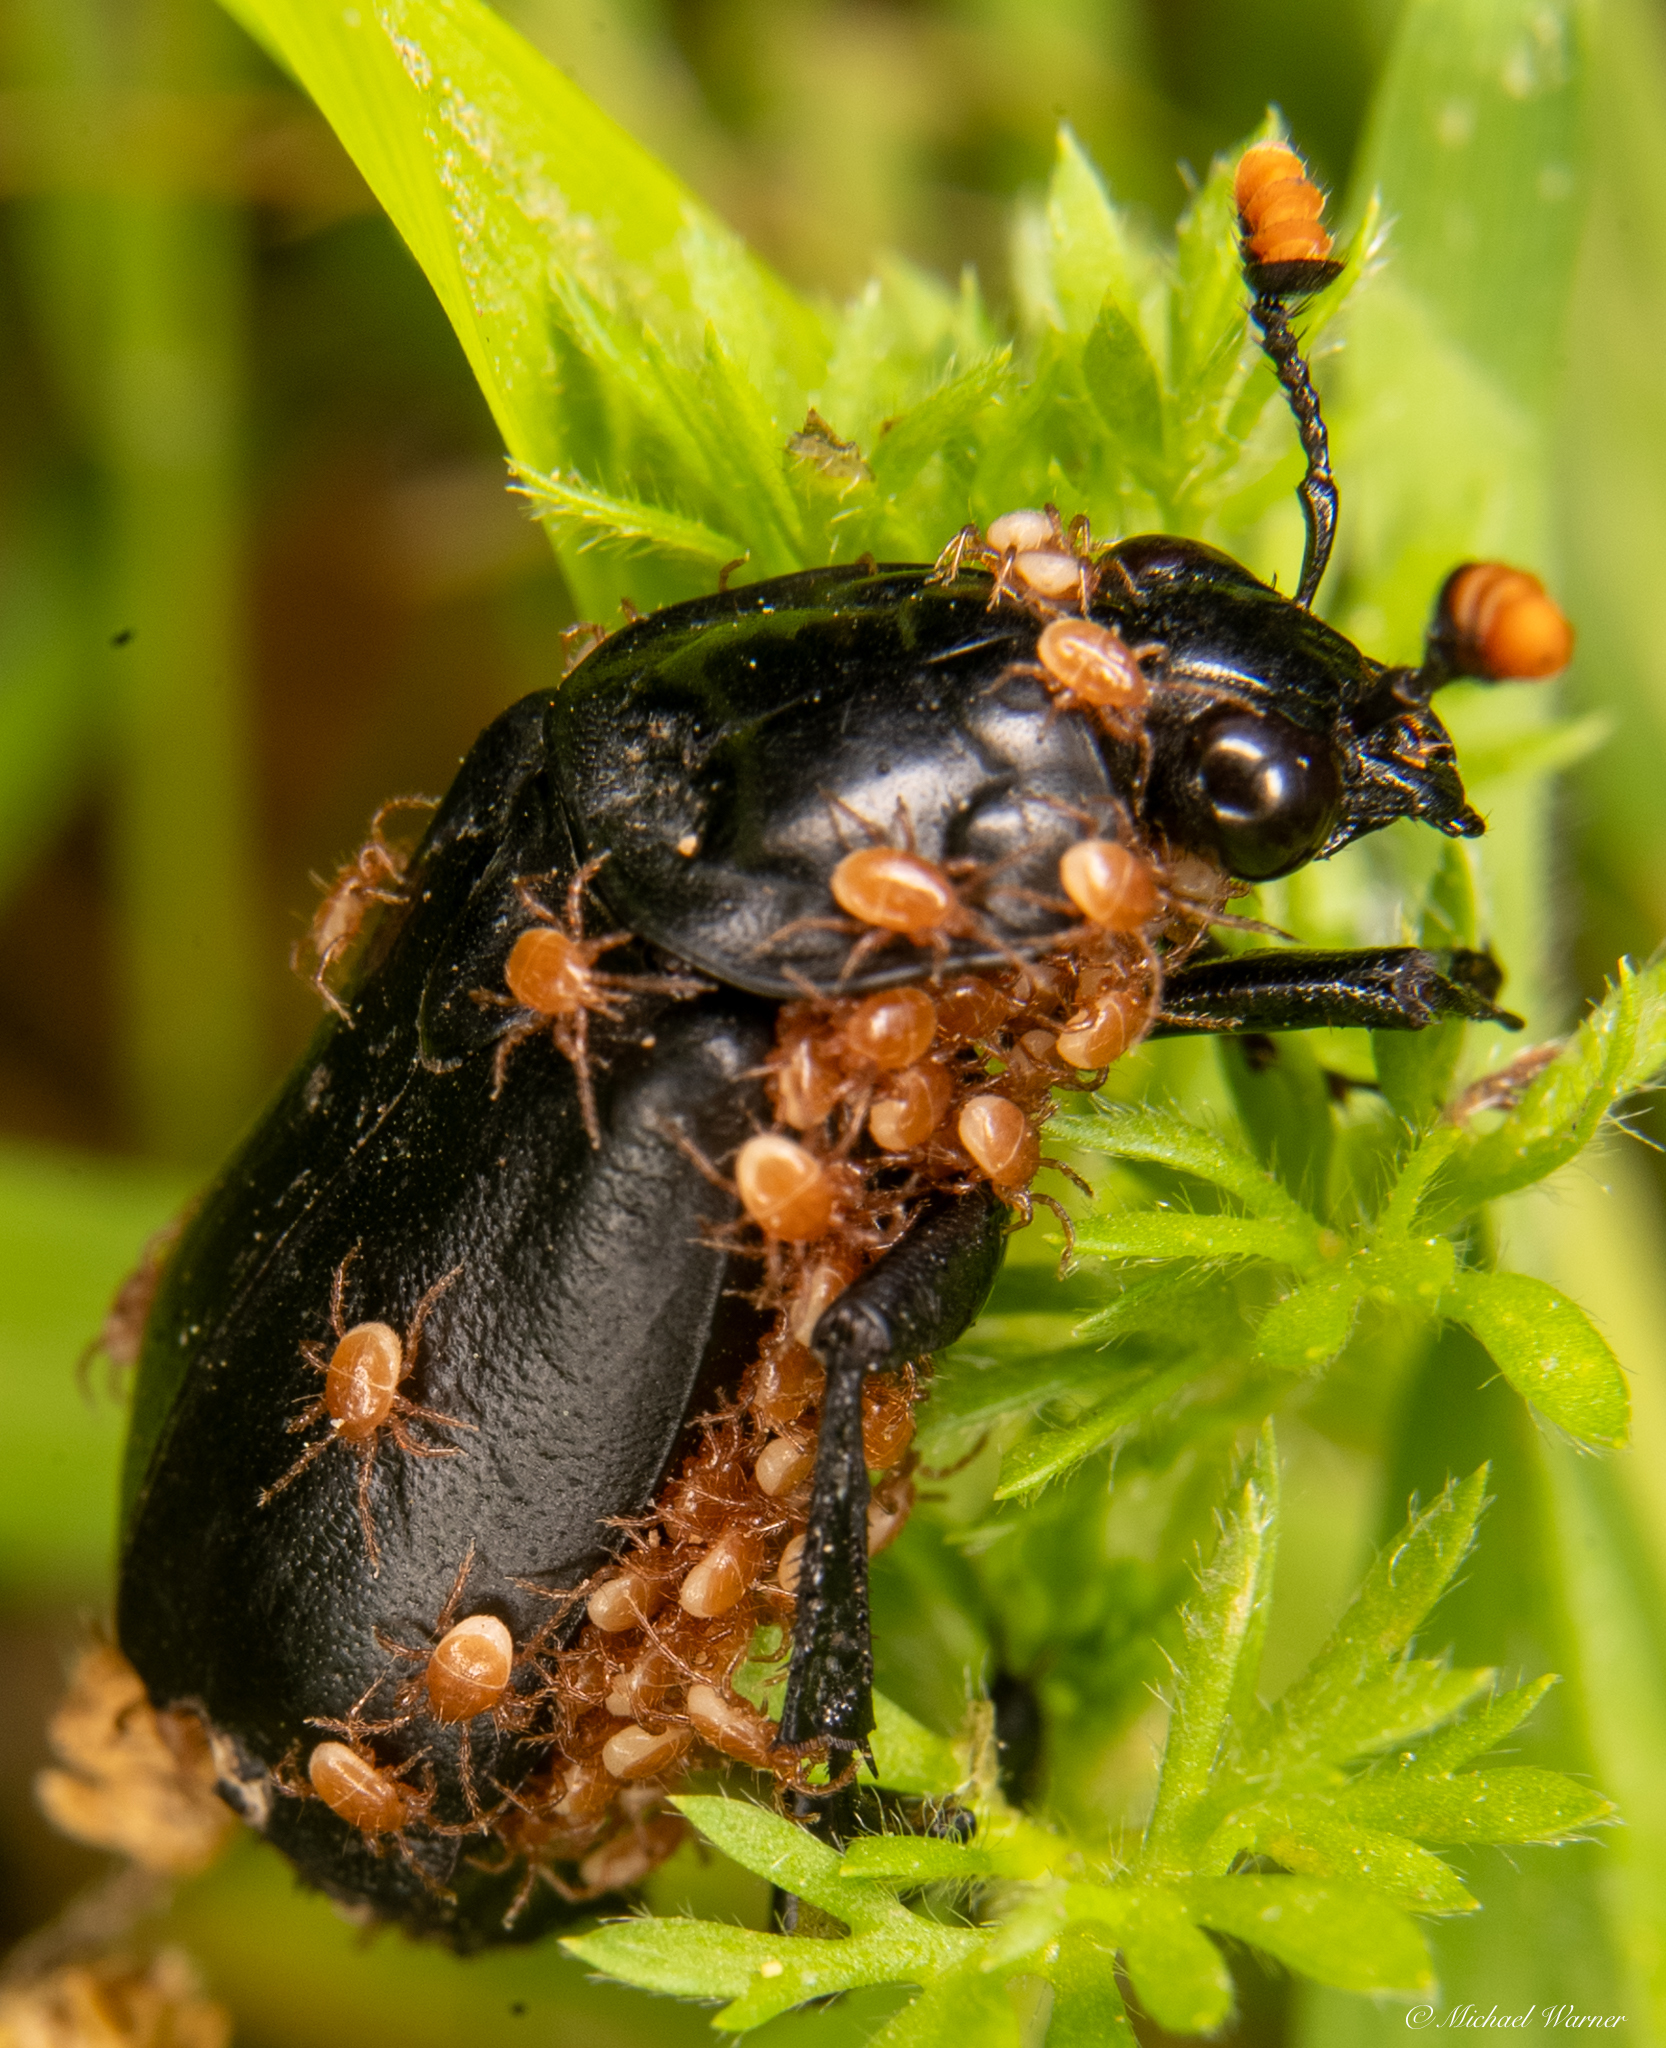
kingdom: Animalia
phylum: Arthropoda
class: Insecta
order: Coleoptera
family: Staphylinidae
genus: Nicrophorus
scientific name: Nicrophorus nigrita
